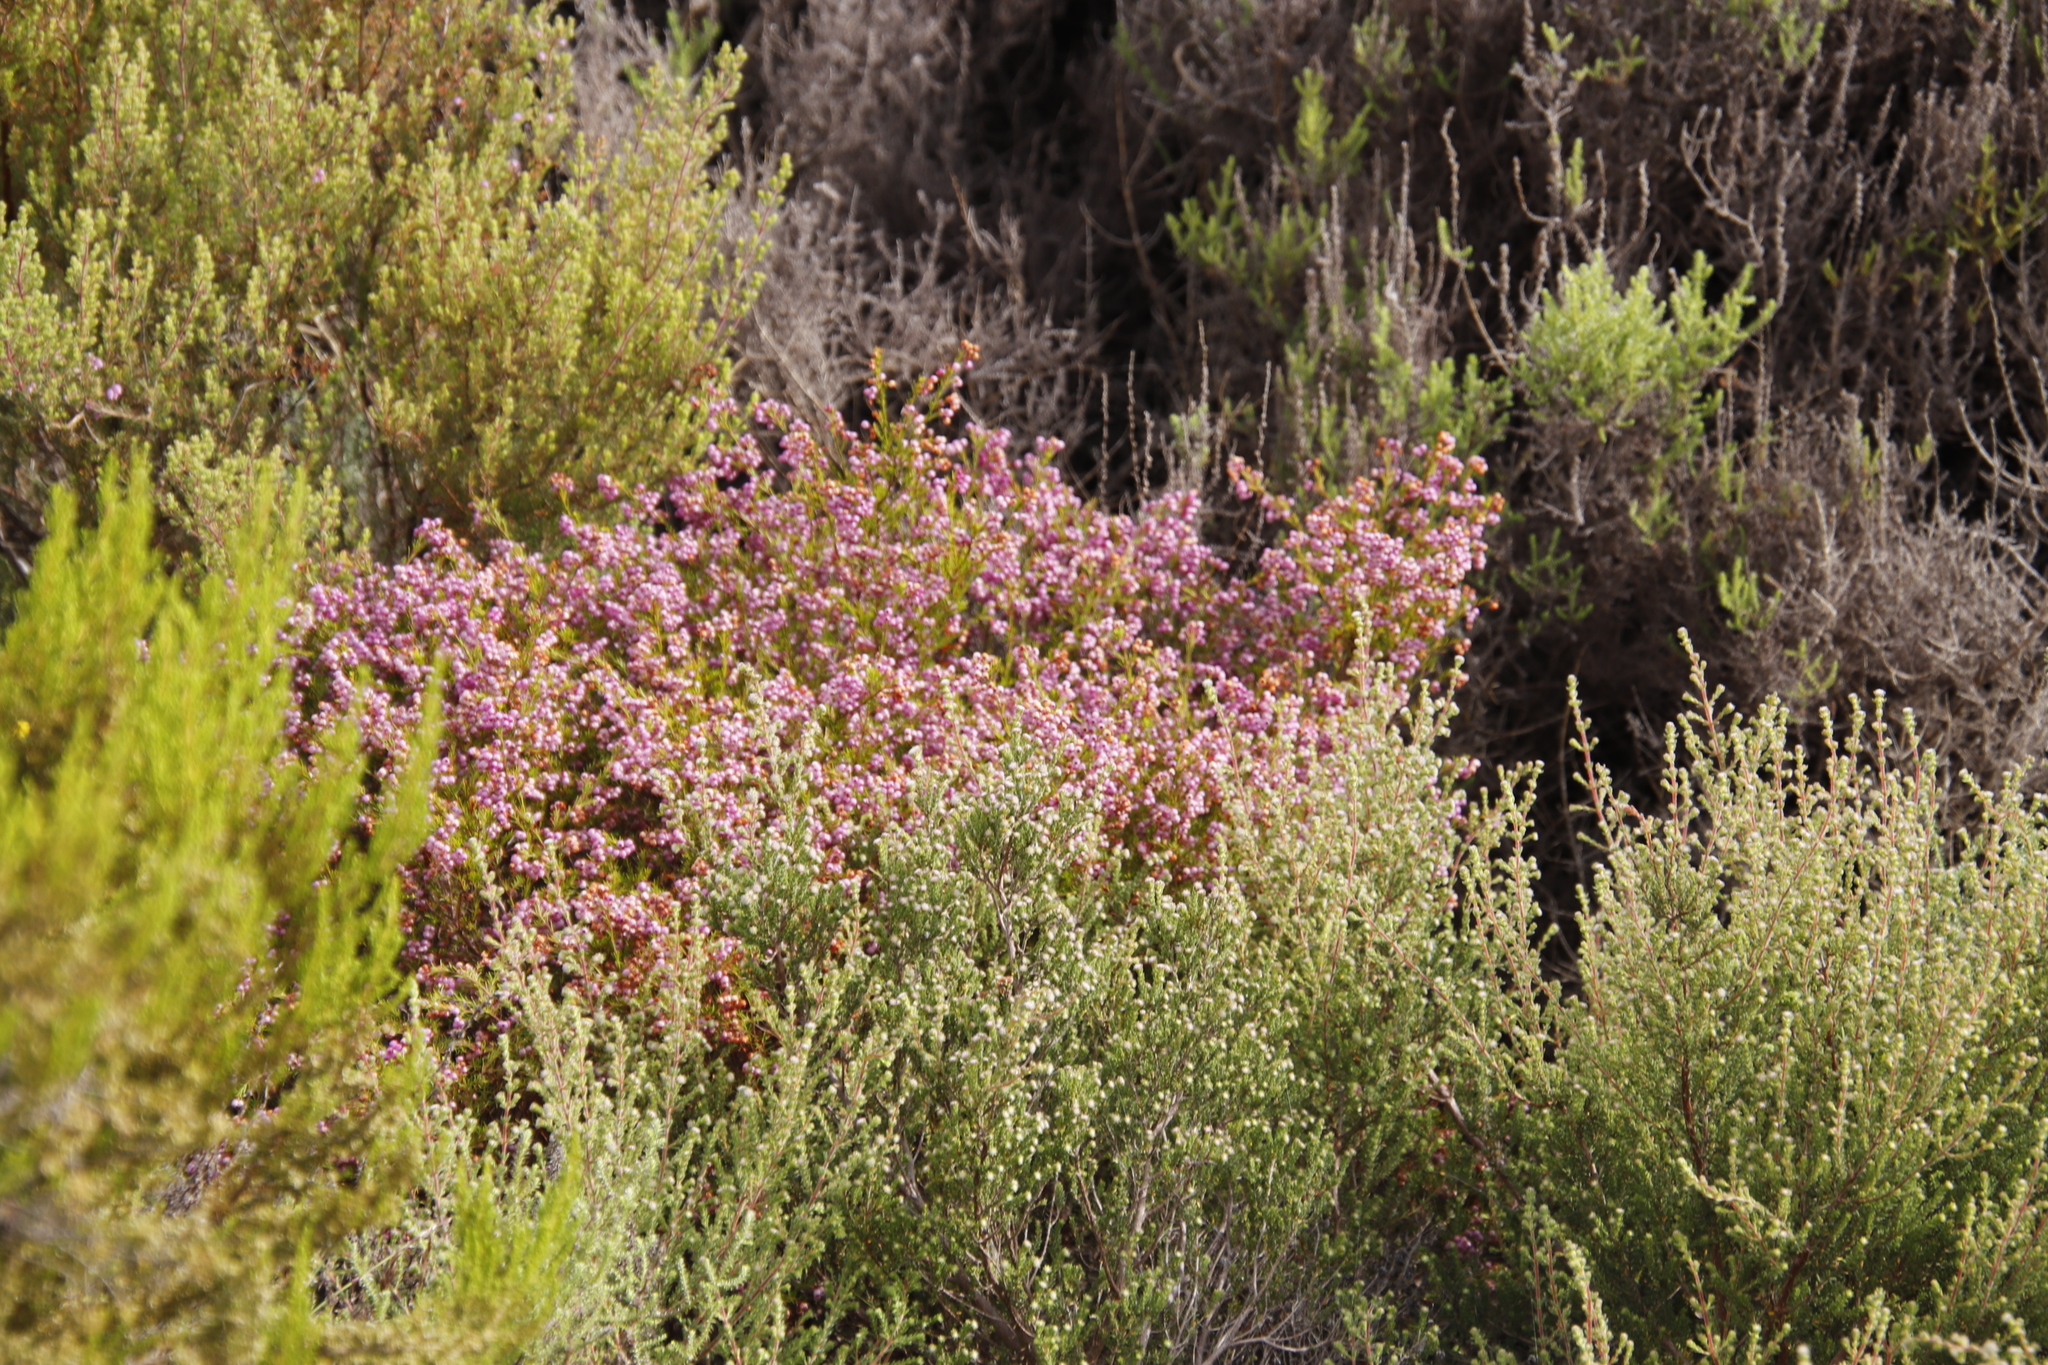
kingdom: Plantae
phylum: Tracheophyta
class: Magnoliopsida
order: Ericales
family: Ericaceae
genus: Erica
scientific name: Erica hirtiflora
